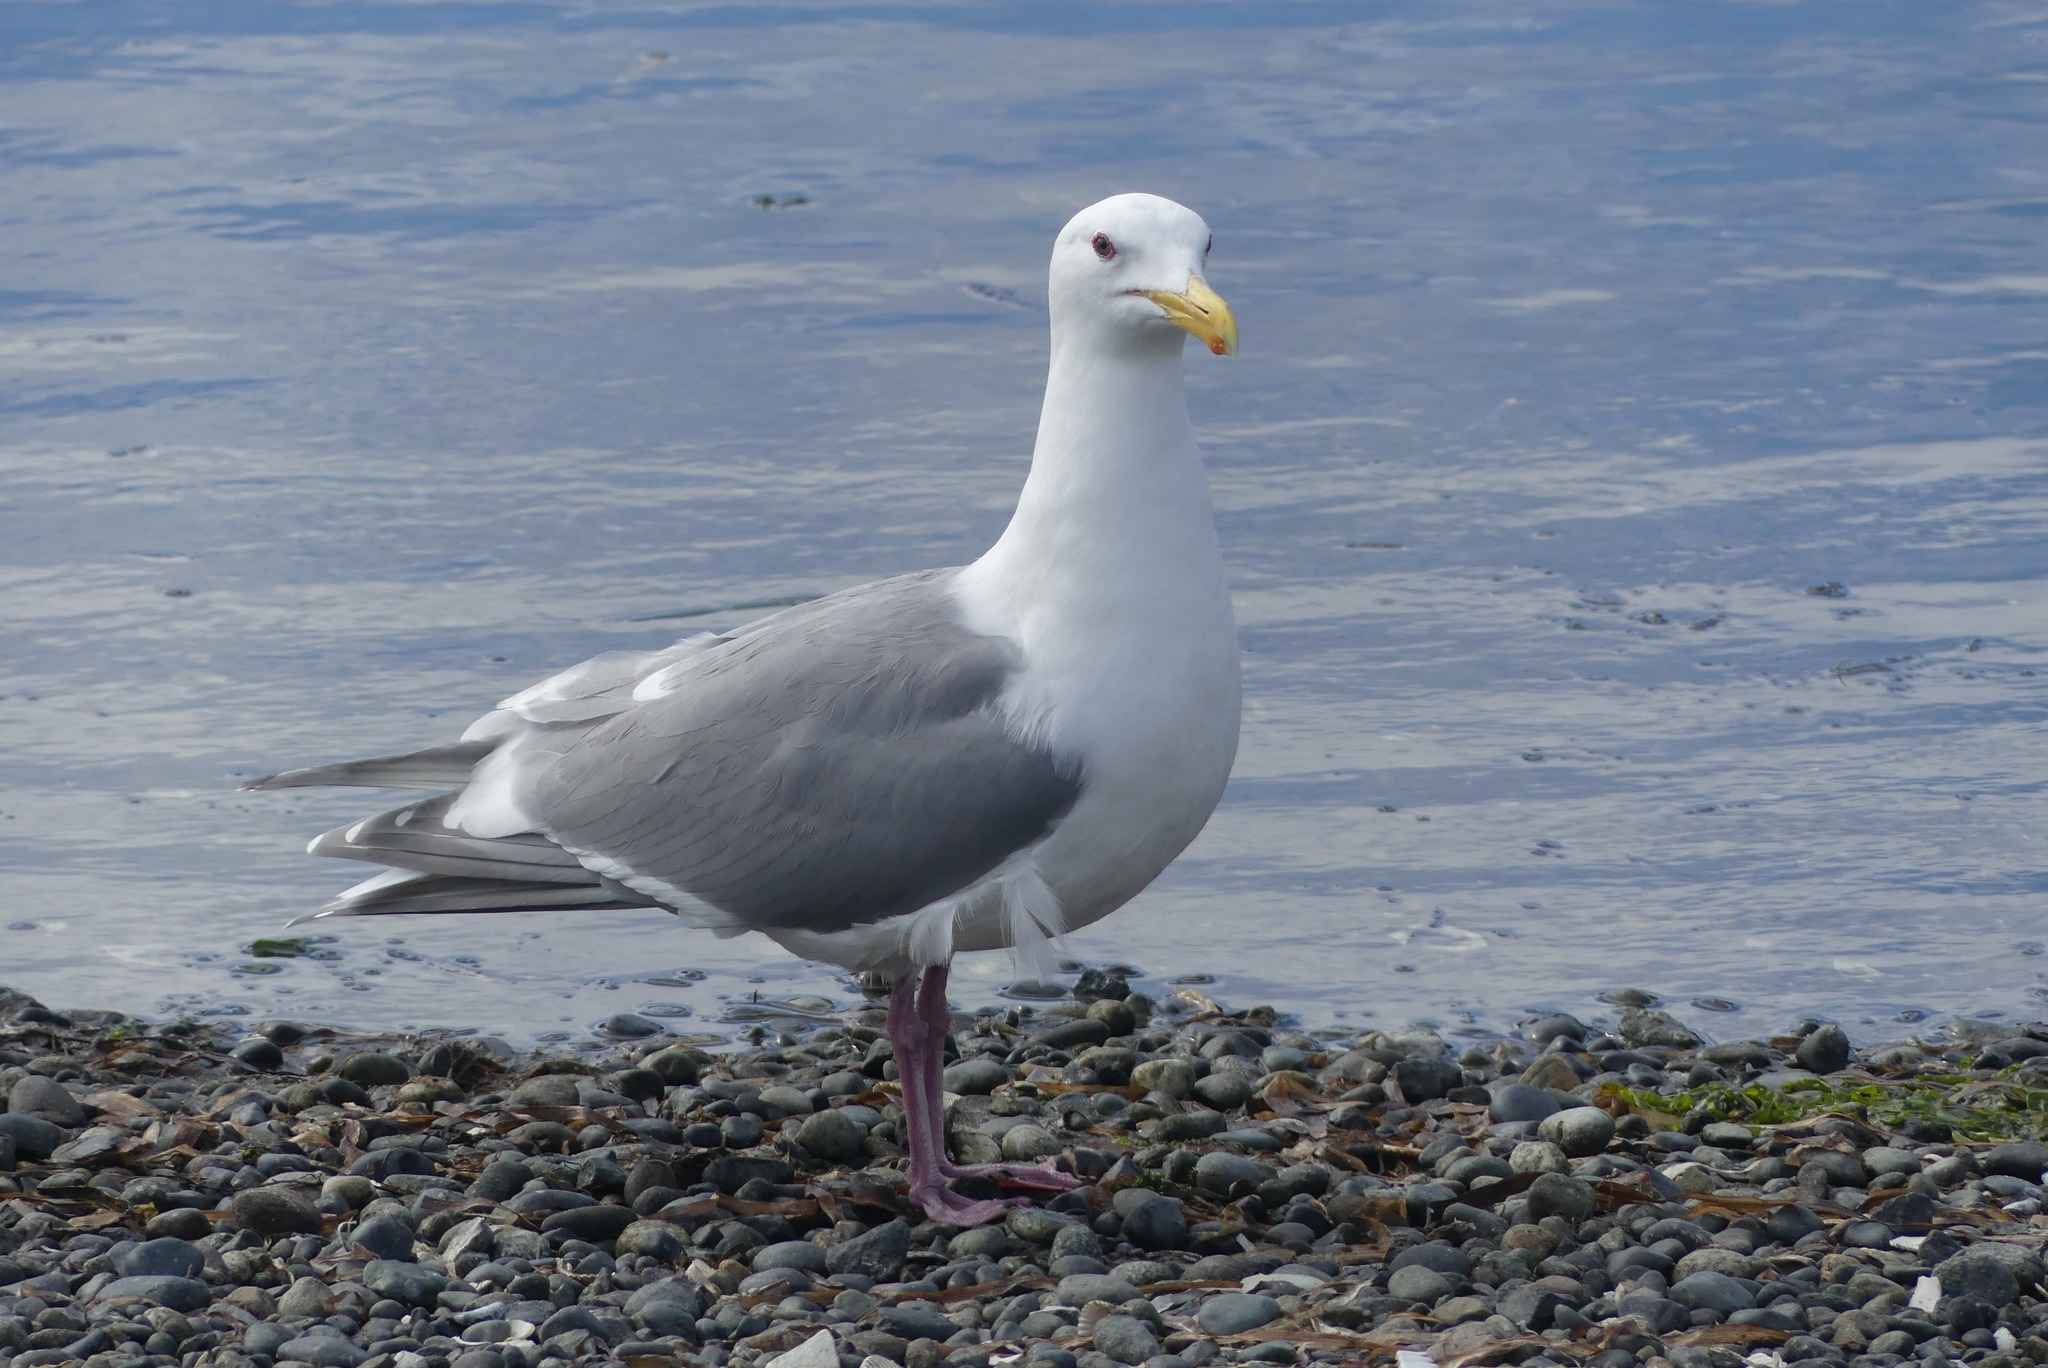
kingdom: Animalia
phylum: Chordata
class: Aves
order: Charadriiformes
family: Laridae
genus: Larus
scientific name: Larus glaucescens
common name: Glaucous-winged gull
